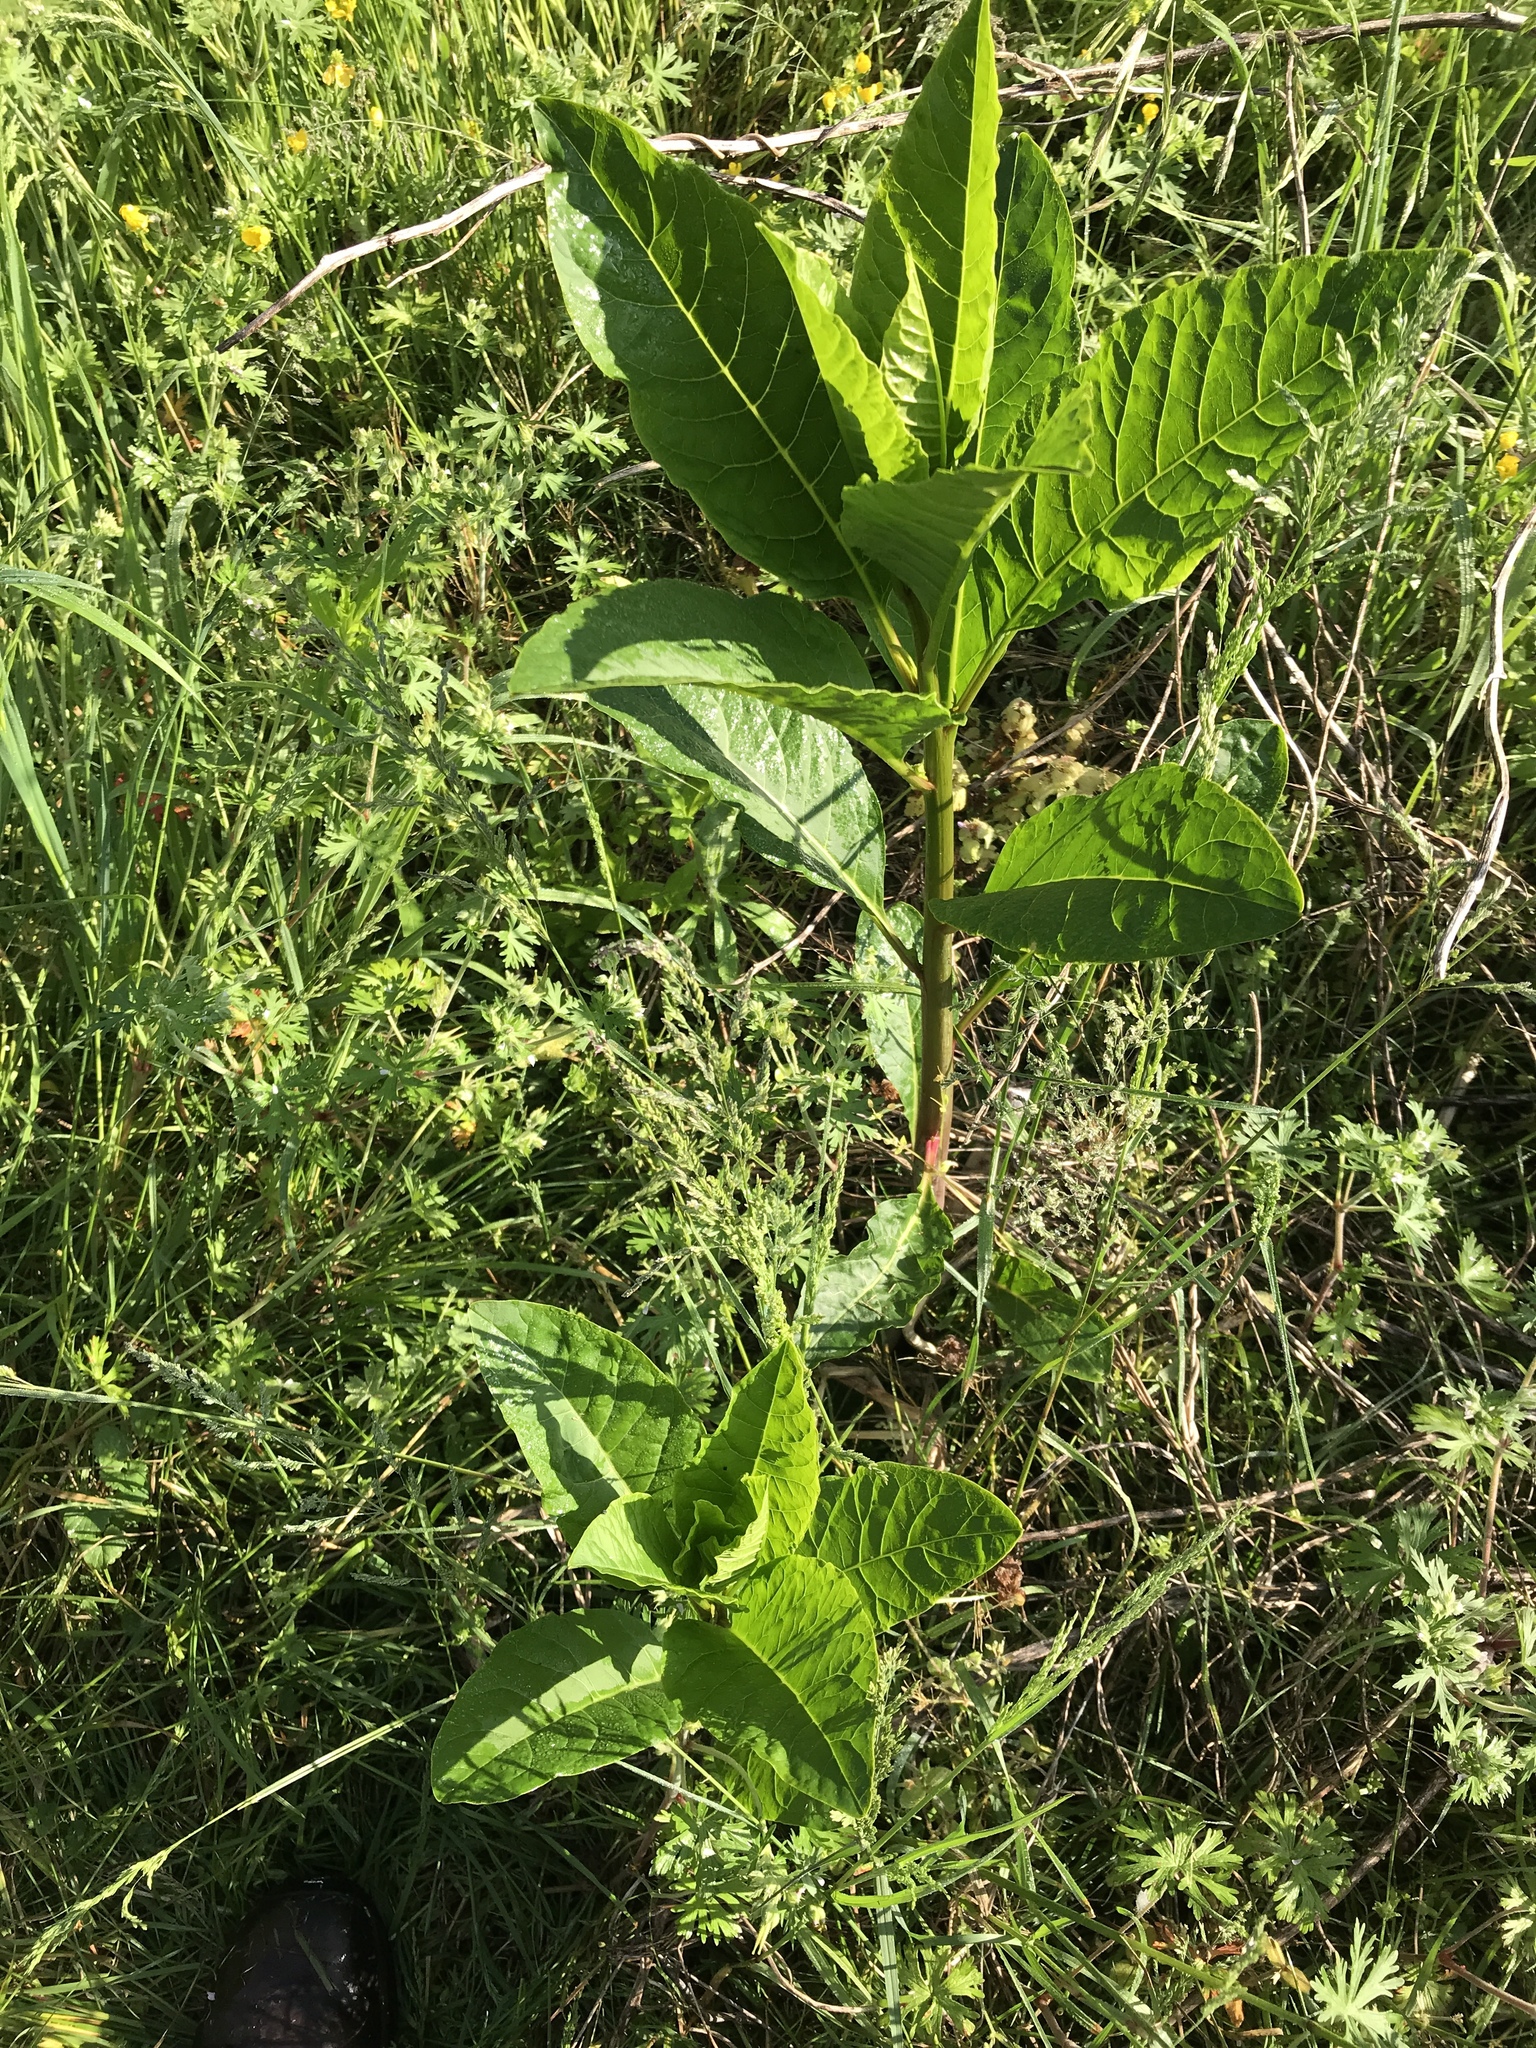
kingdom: Plantae
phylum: Tracheophyta
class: Magnoliopsida
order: Caryophyllales
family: Phytolaccaceae
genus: Phytolacca
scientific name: Phytolacca americana
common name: American pokeweed
